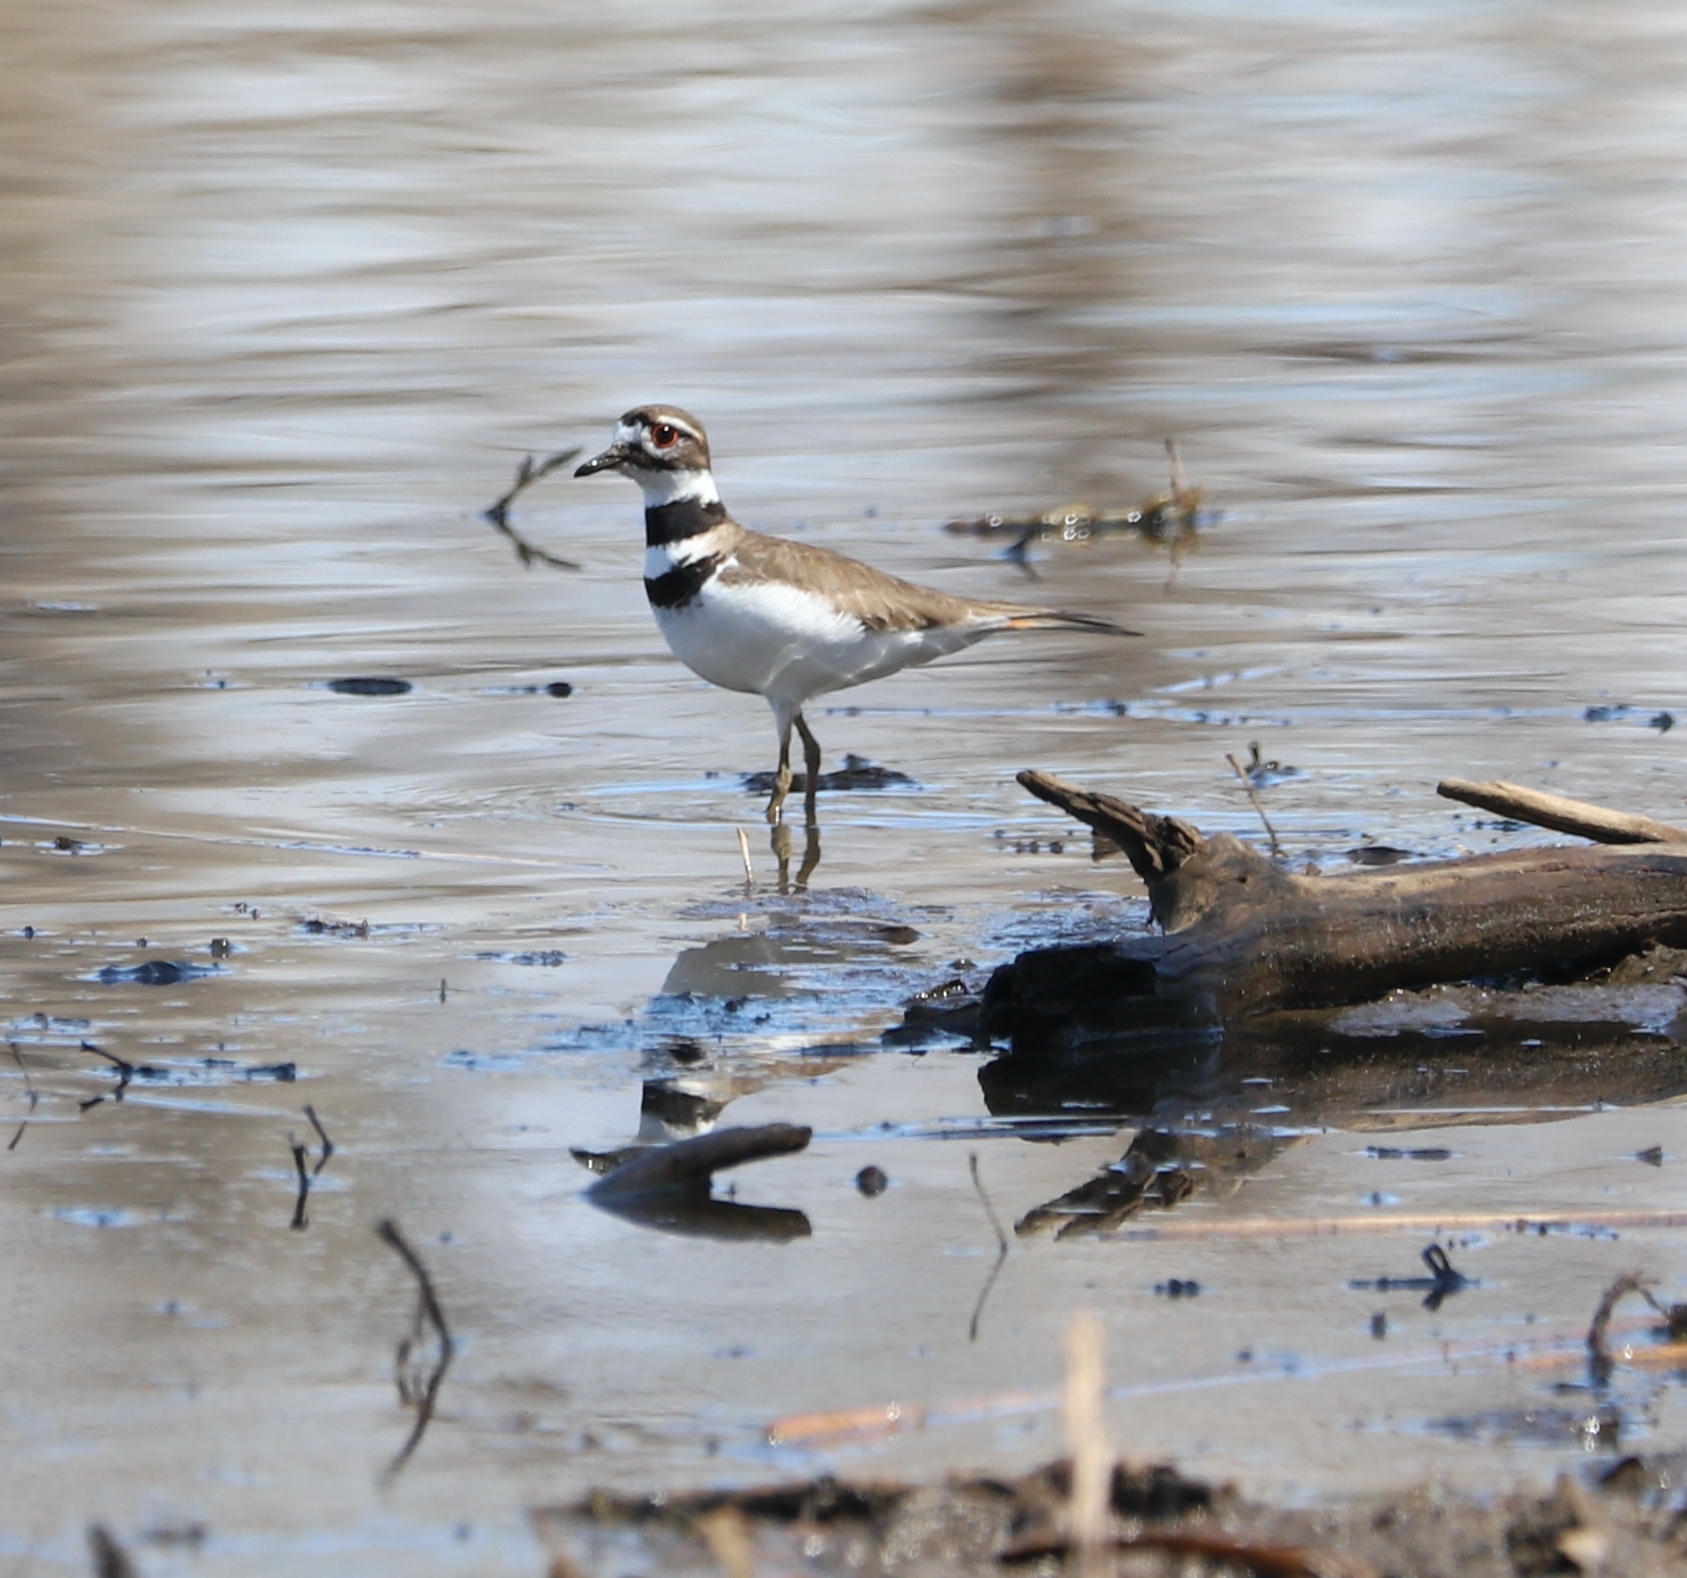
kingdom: Animalia
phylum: Chordata
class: Aves
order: Charadriiformes
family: Charadriidae
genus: Charadrius
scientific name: Charadrius vociferus
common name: Killdeer
